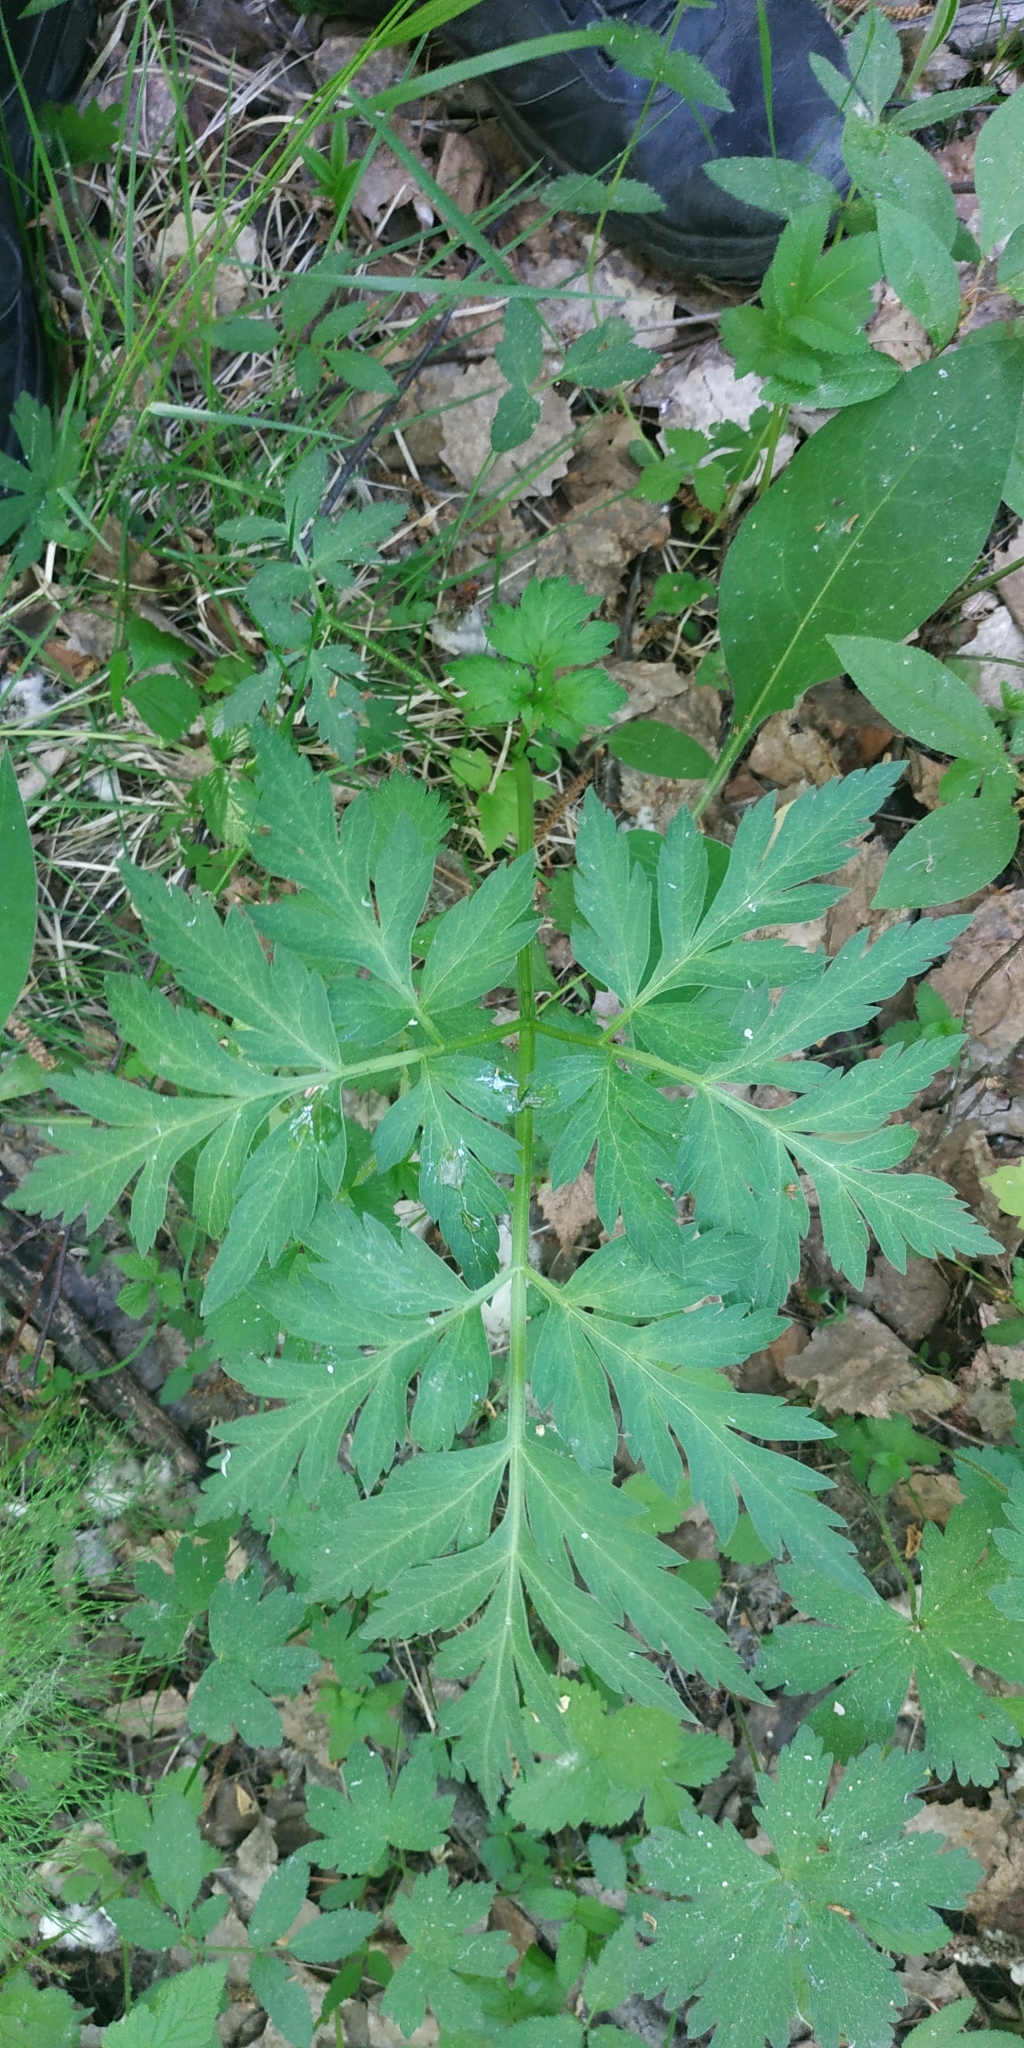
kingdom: Plantae
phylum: Tracheophyta
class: Magnoliopsida
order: Apiales
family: Apiaceae
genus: Pleurospermum
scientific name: Pleurospermum uralense
